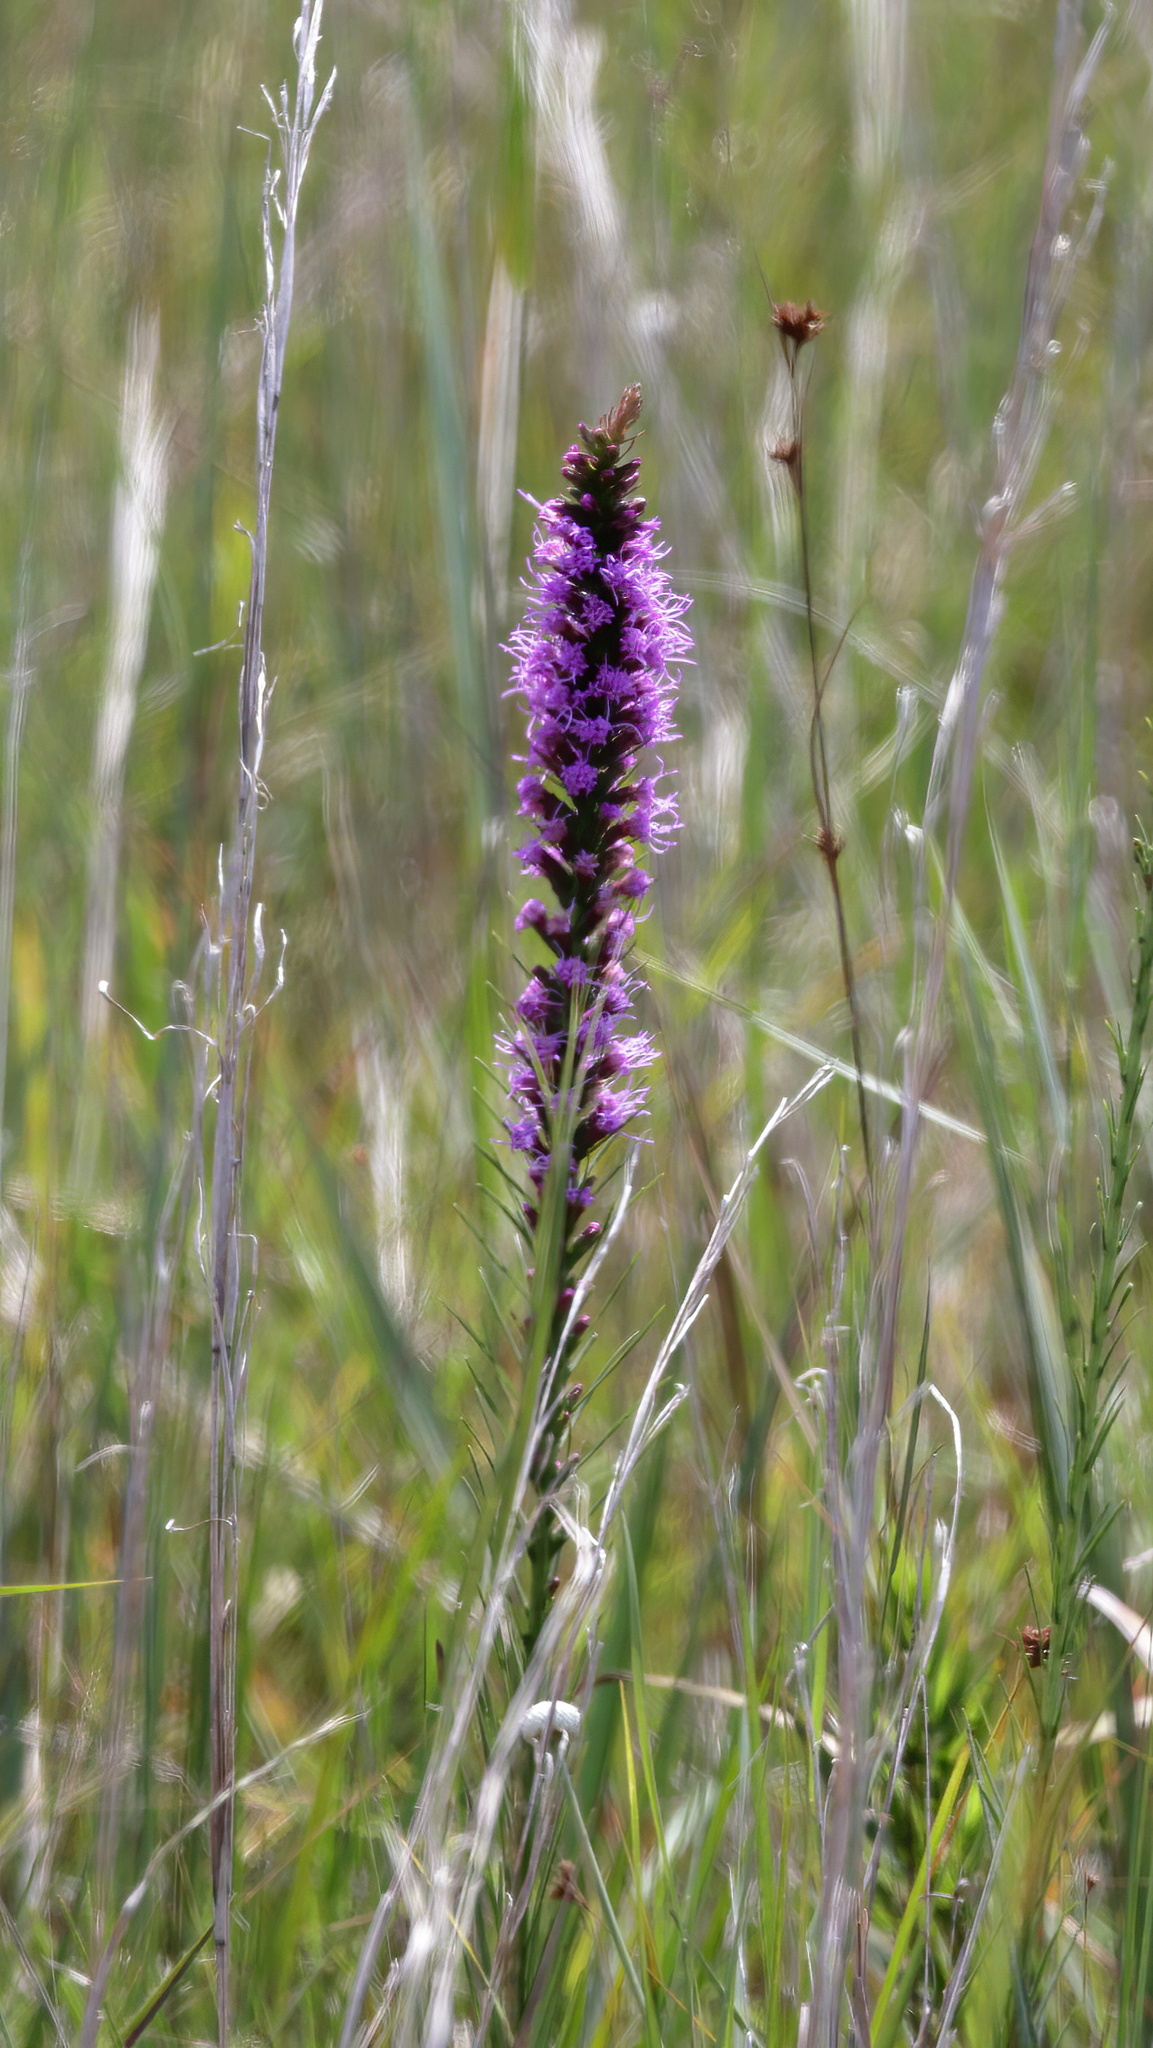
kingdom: Plantae
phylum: Tracheophyta
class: Magnoliopsida
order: Asterales
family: Asteraceae
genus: Liatris
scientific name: Liatris spicata
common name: Florist gayfeather
